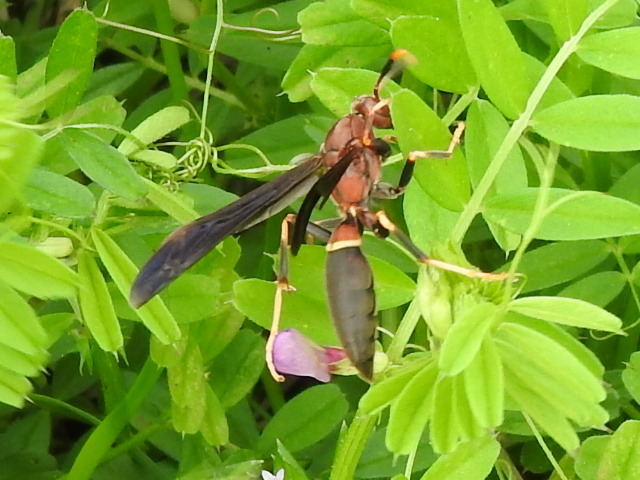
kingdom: Animalia
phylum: Arthropoda
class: Insecta
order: Hymenoptera
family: Eumenidae
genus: Polistes
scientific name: Polistes annularis
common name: Ringed paper wasp
